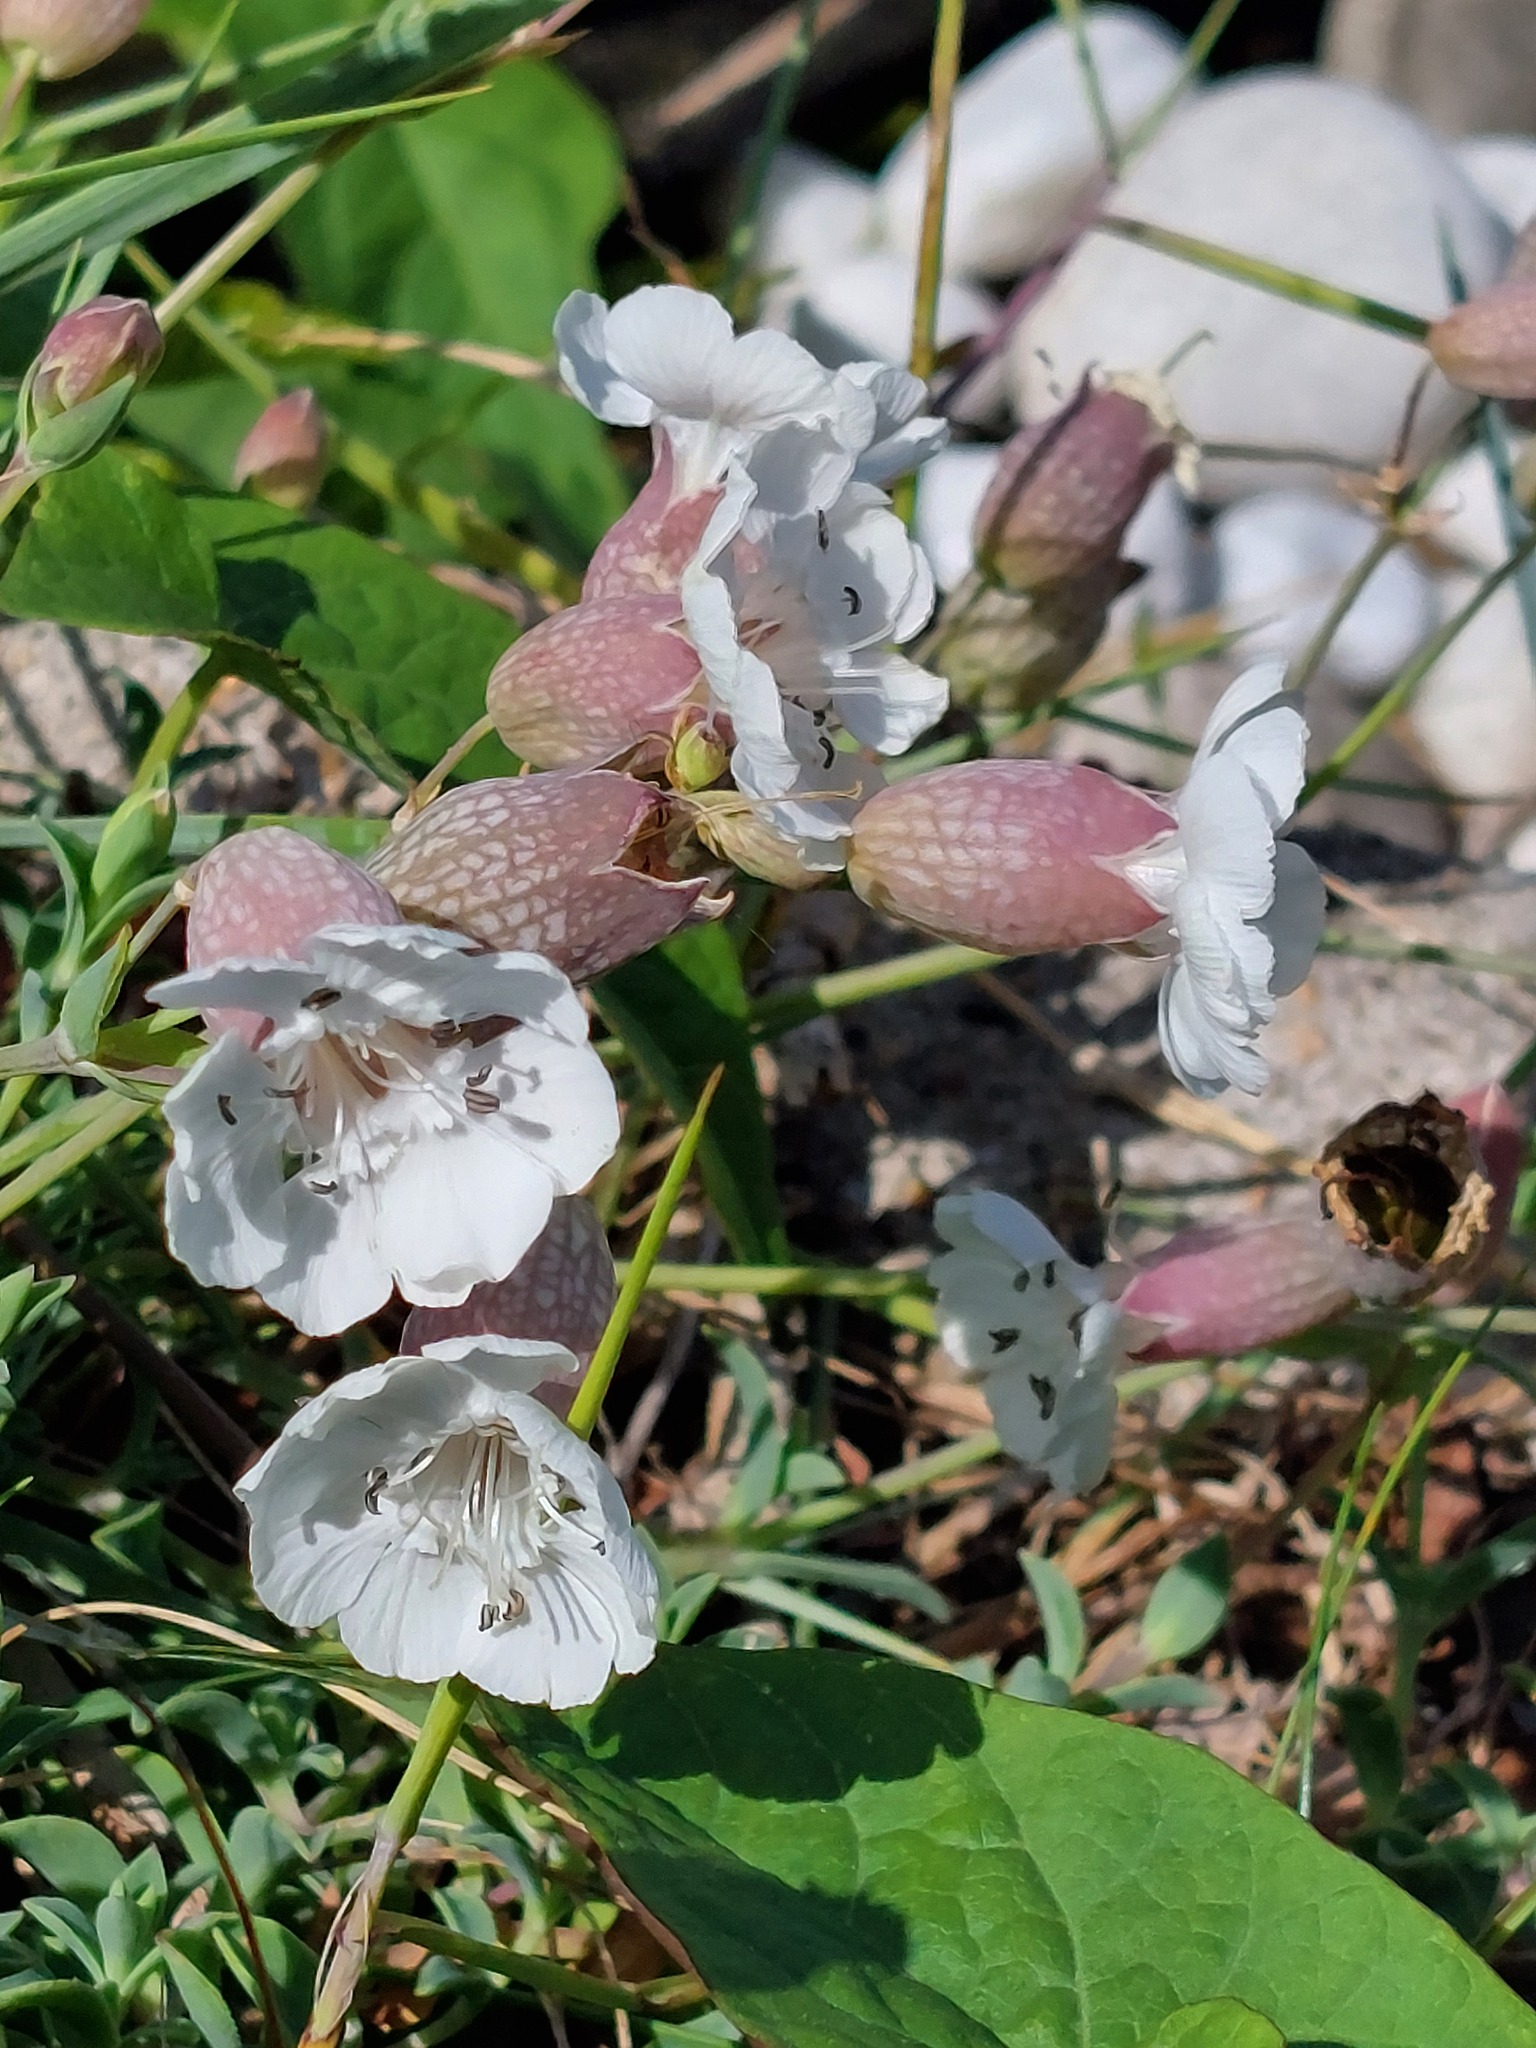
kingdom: Plantae
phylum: Tracheophyta
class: Magnoliopsida
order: Caryophyllales
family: Caryophyllaceae
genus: Silene
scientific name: Silene uniflora
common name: Sea campion
